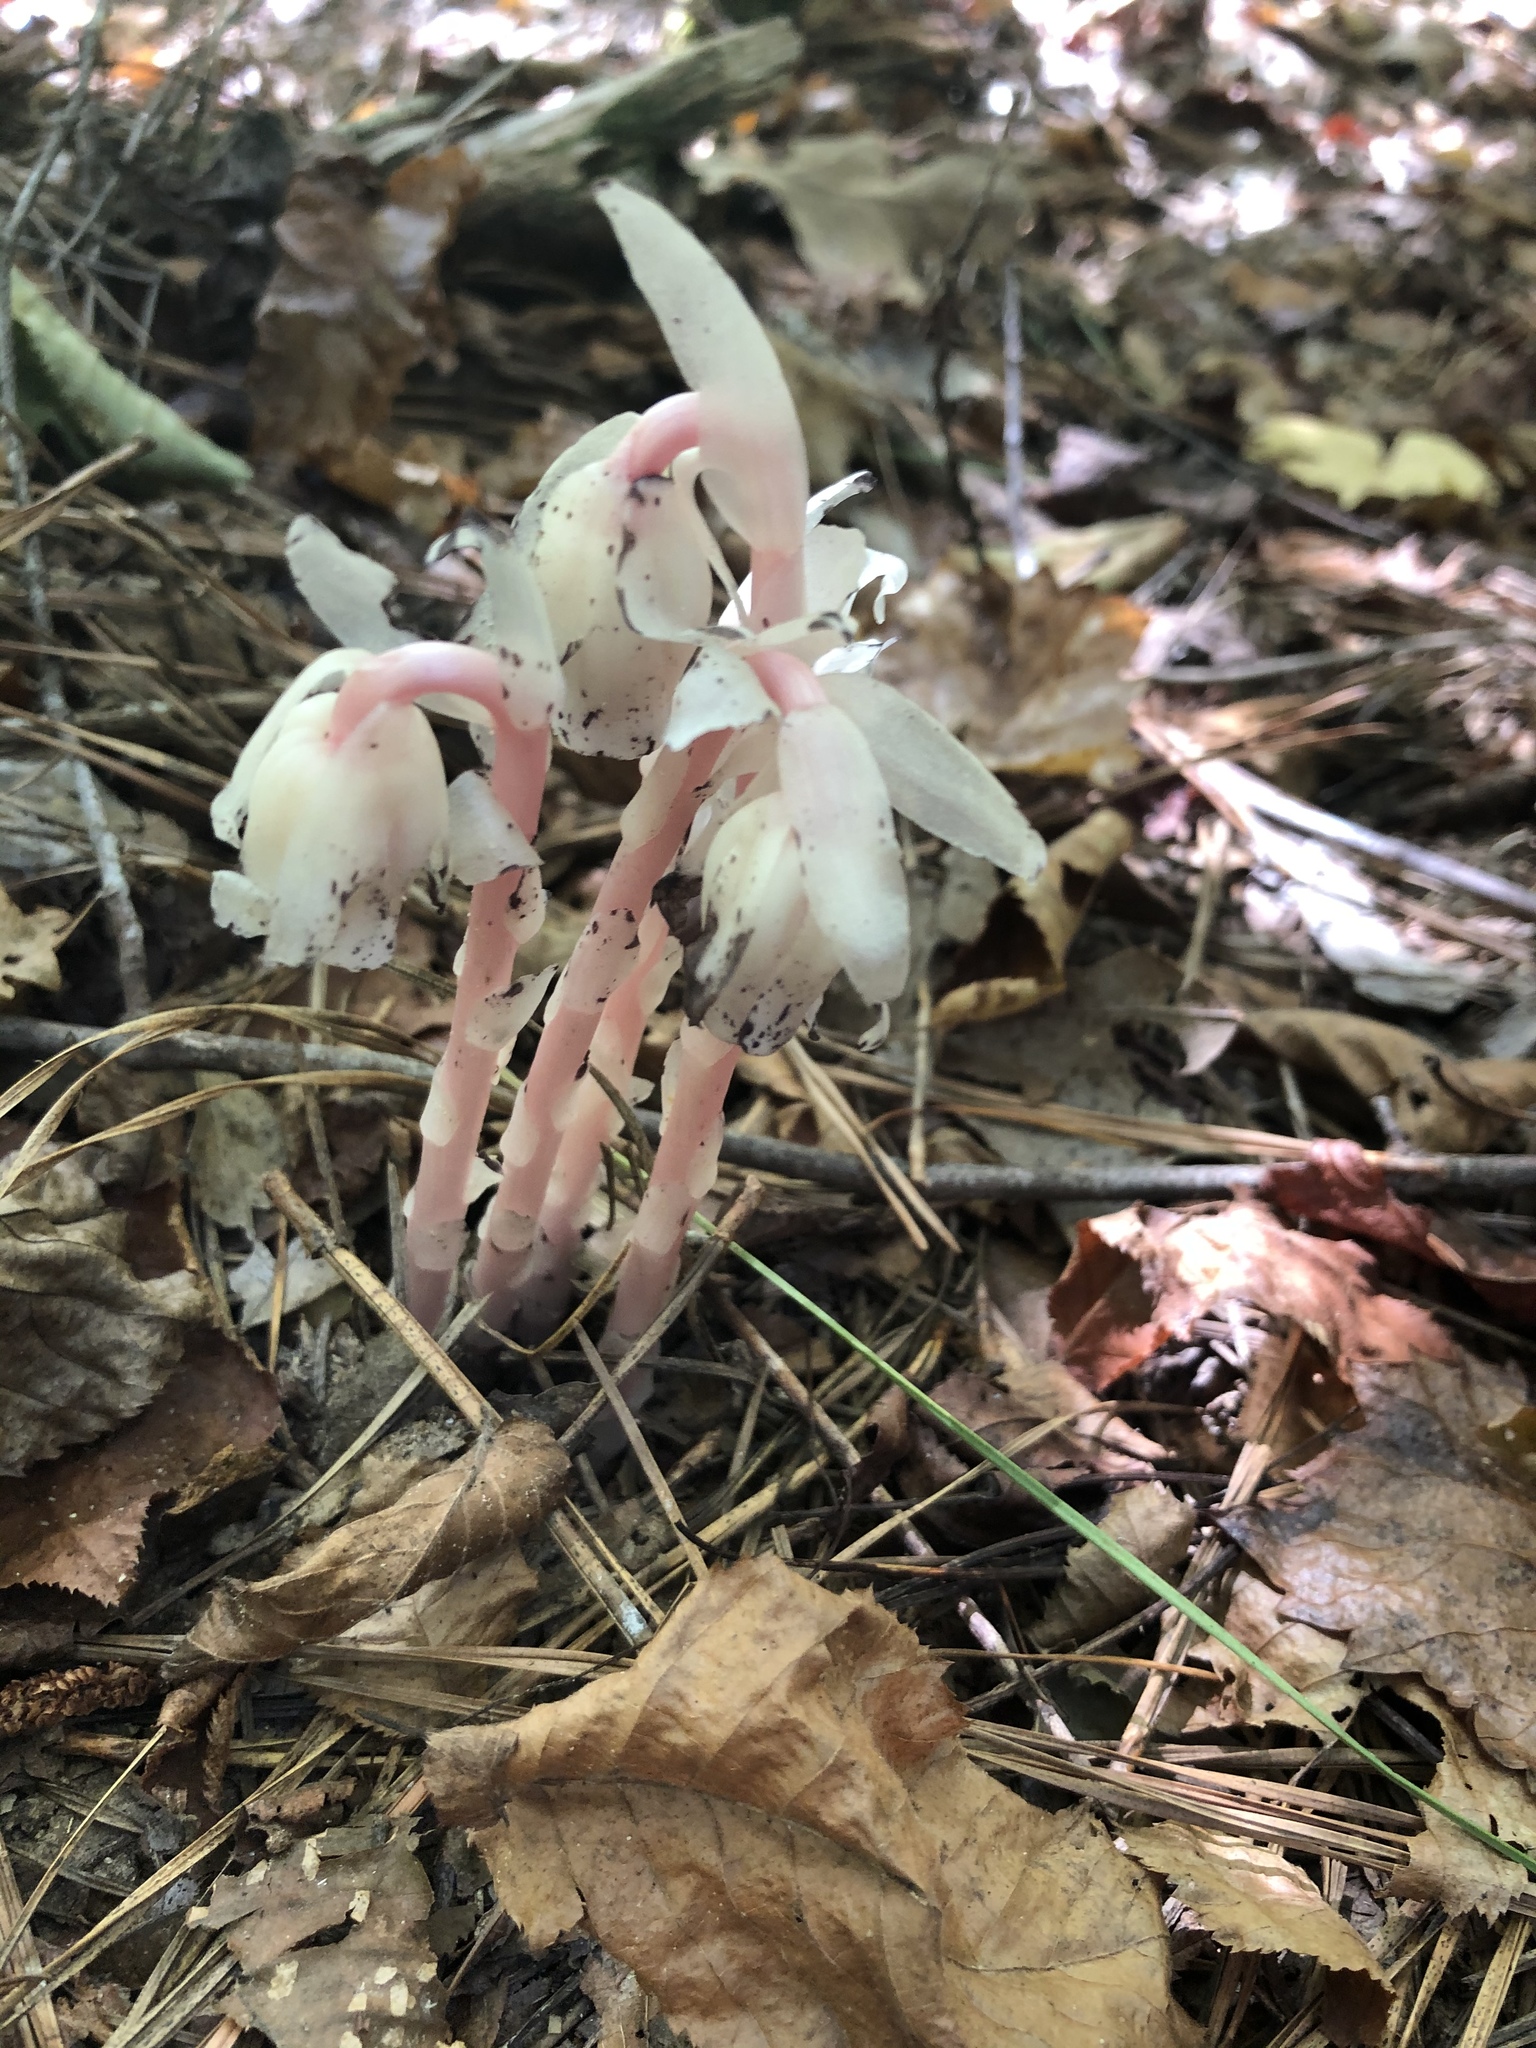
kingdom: Plantae
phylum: Tracheophyta
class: Magnoliopsida
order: Ericales
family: Ericaceae
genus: Monotropa
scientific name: Monotropa uniflora
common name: Convulsion root
